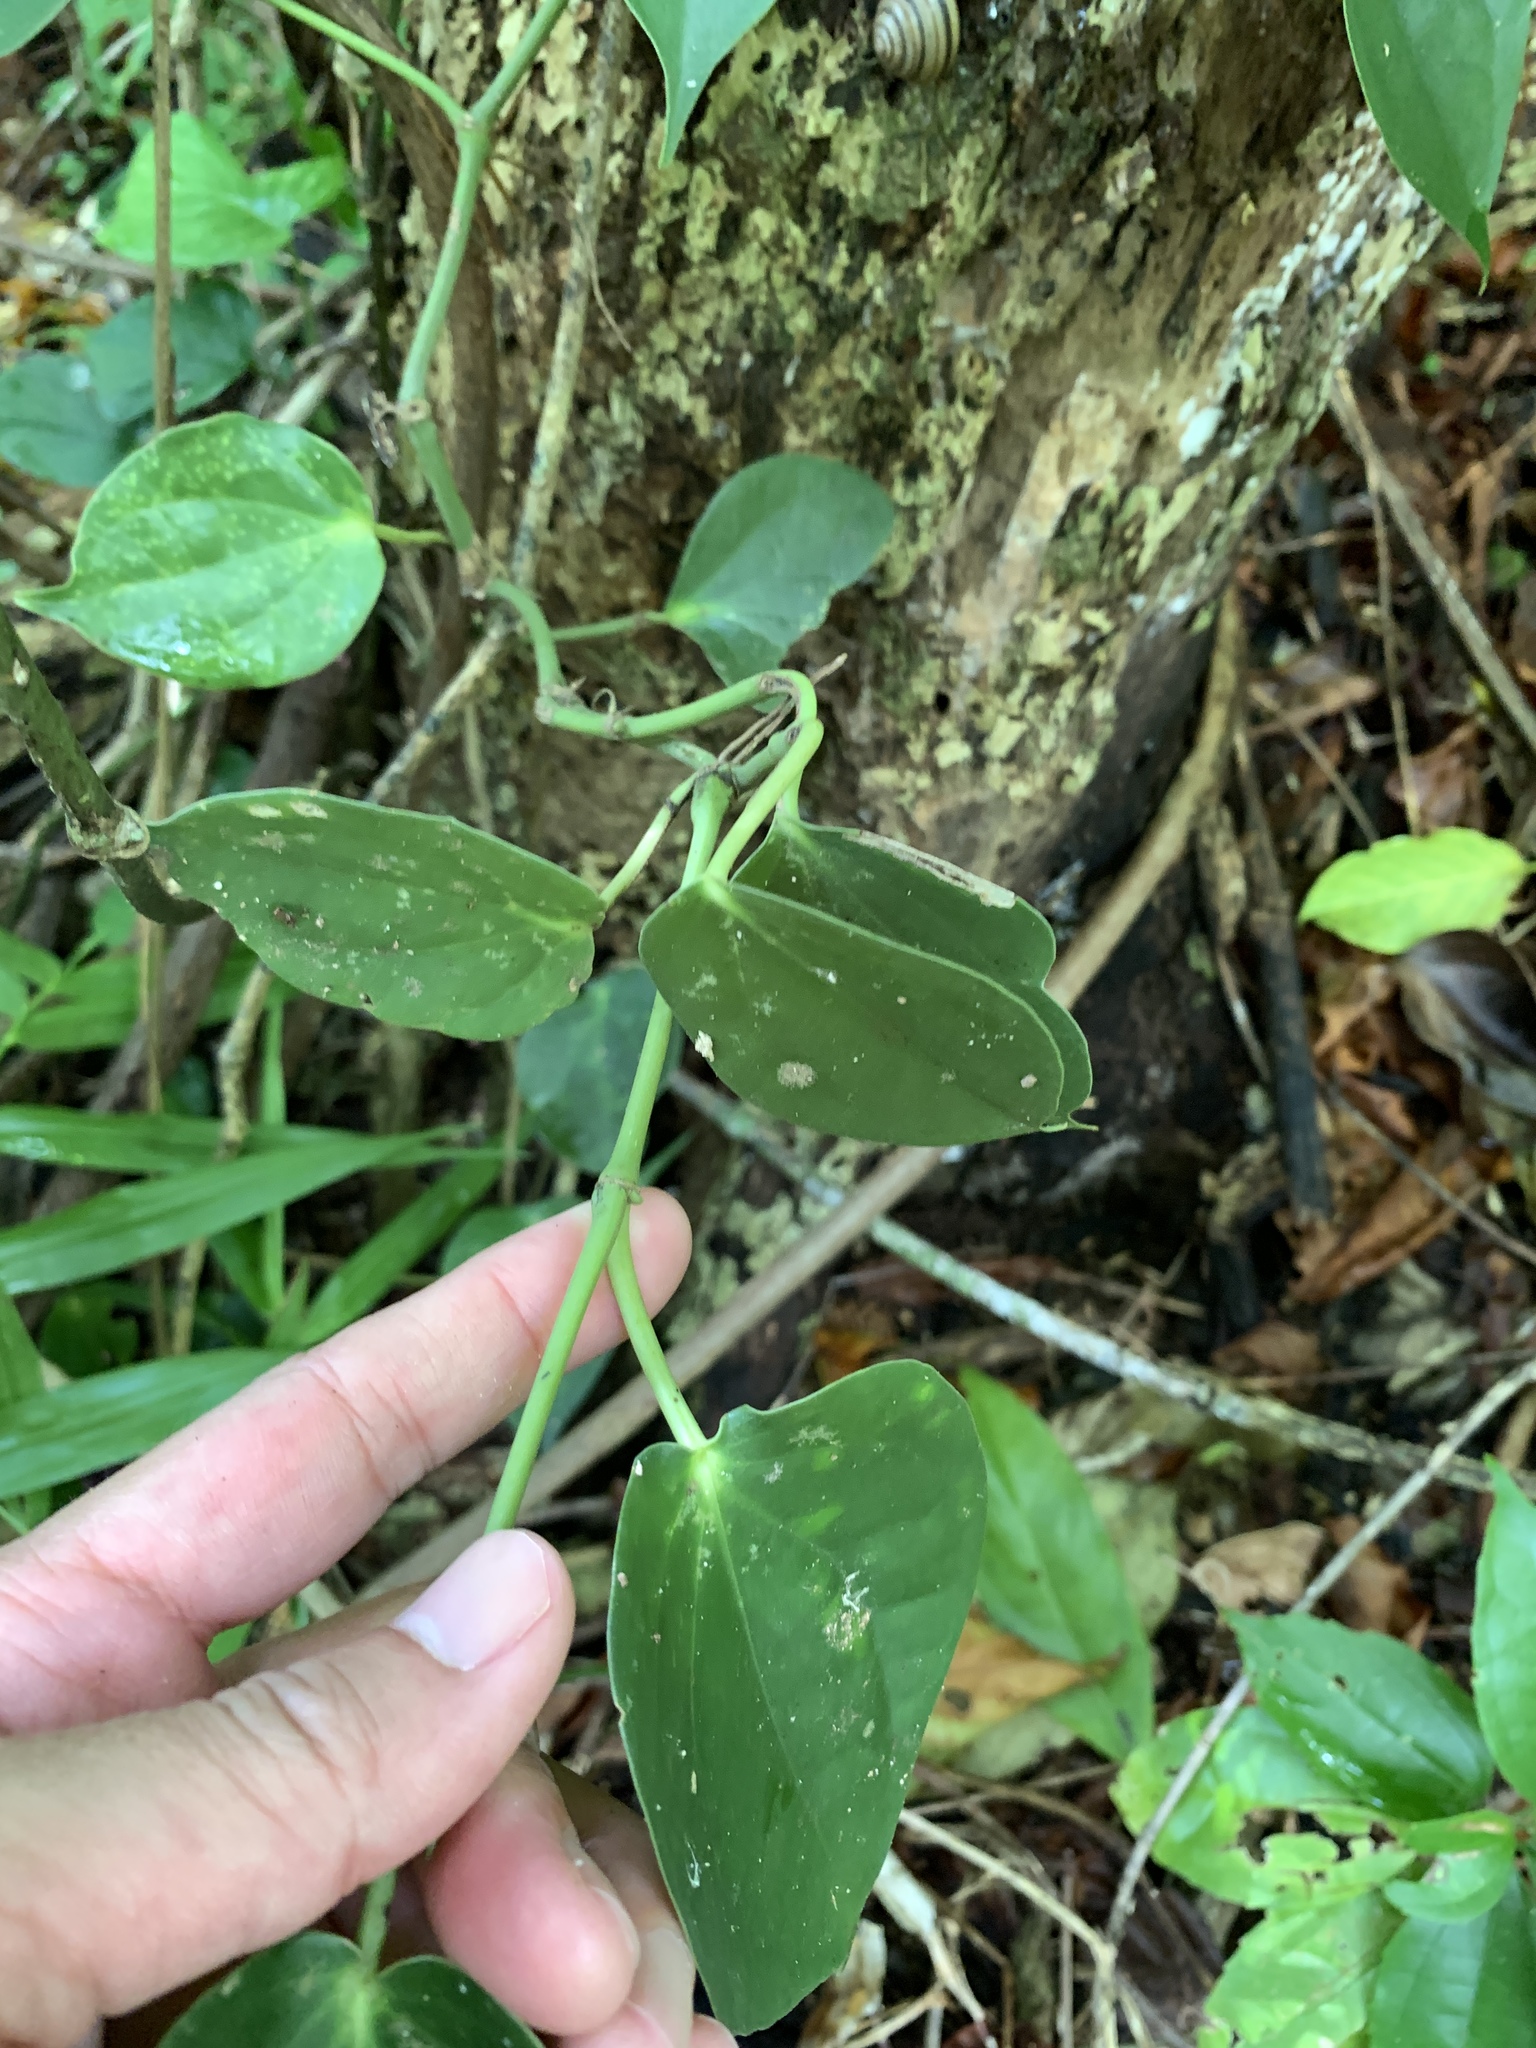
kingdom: Plantae
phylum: Tracheophyta
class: Magnoliopsida
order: Piperales
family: Piperaceae
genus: Piper
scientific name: Piper lanyuense
